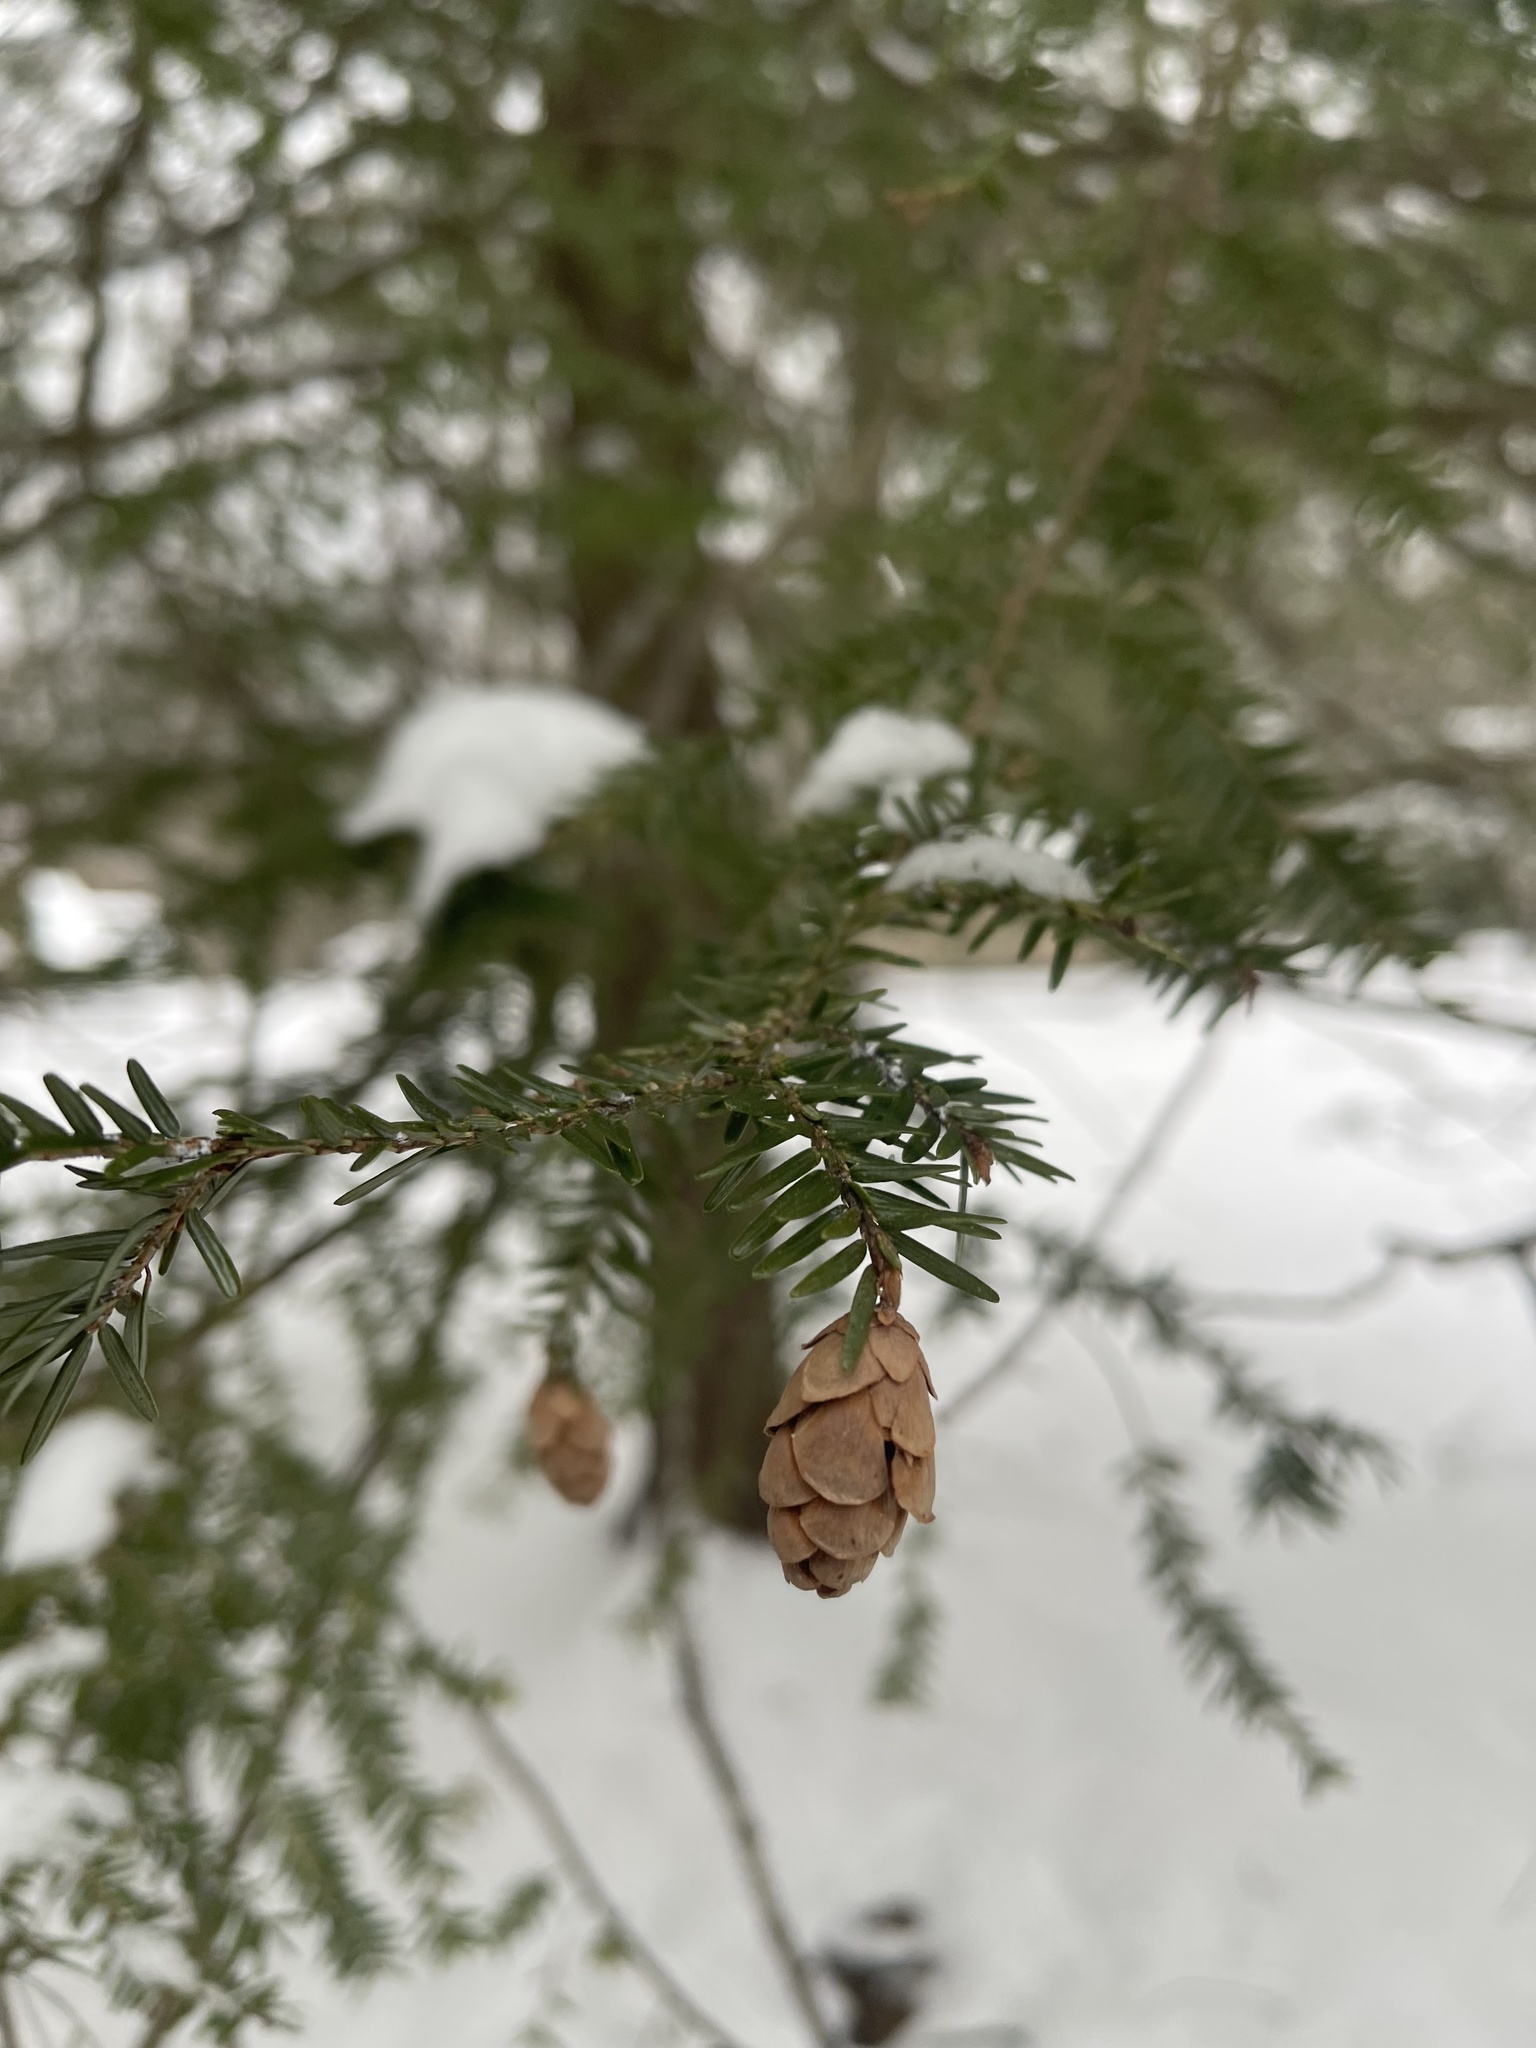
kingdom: Plantae
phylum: Tracheophyta
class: Pinopsida
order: Pinales
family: Pinaceae
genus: Tsuga
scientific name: Tsuga canadensis
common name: Eastern hemlock
